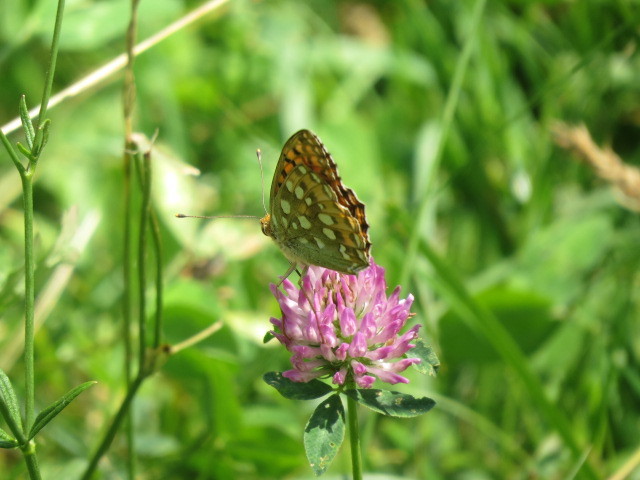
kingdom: Animalia
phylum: Arthropoda
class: Insecta
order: Lepidoptera
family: Nymphalidae
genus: Speyeria
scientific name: Speyeria aglaja
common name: Dark green fritillary
